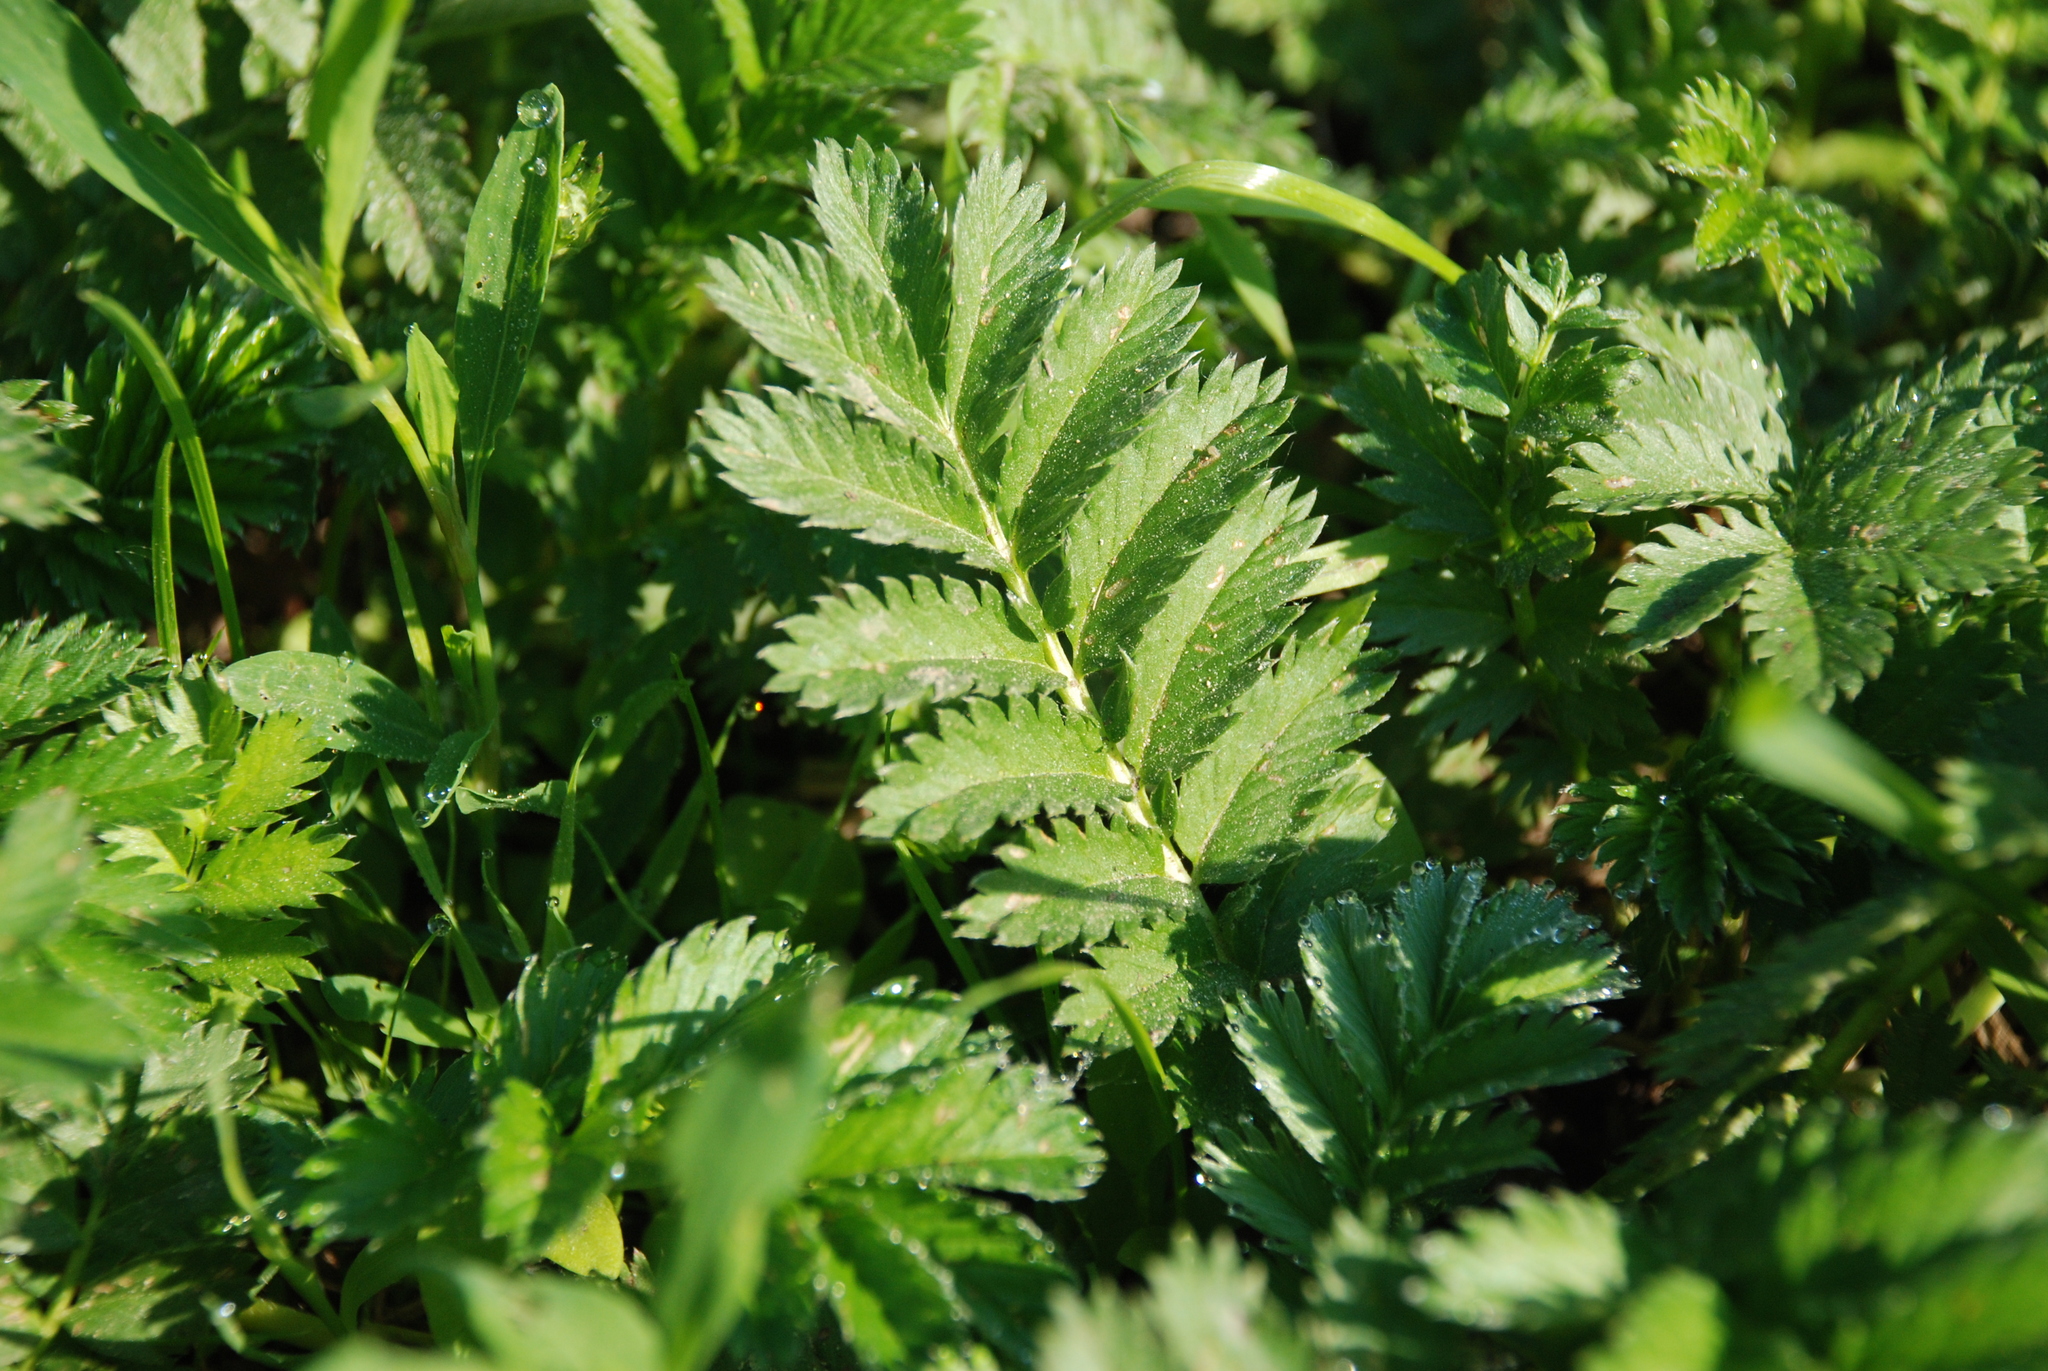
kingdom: Plantae
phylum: Tracheophyta
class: Magnoliopsida
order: Rosales
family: Rosaceae
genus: Argentina
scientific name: Argentina anserina
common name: Common silverweed
